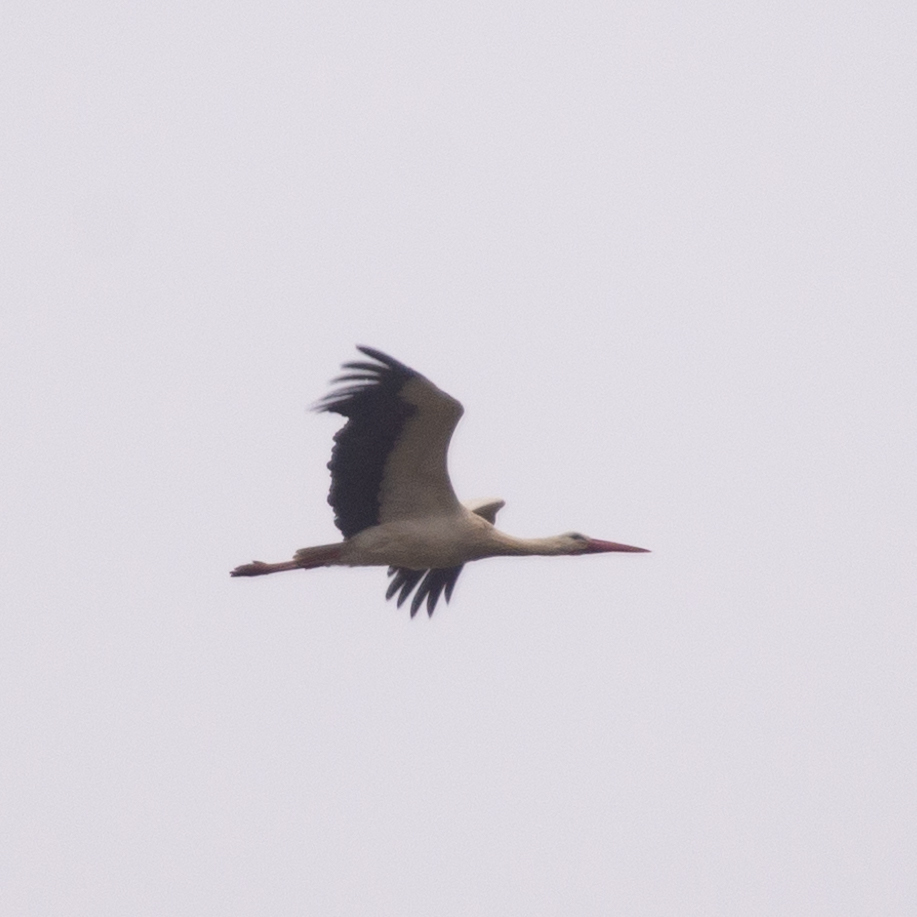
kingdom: Animalia
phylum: Chordata
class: Aves
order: Ciconiiformes
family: Ciconiidae
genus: Ciconia
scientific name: Ciconia ciconia
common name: White stork
